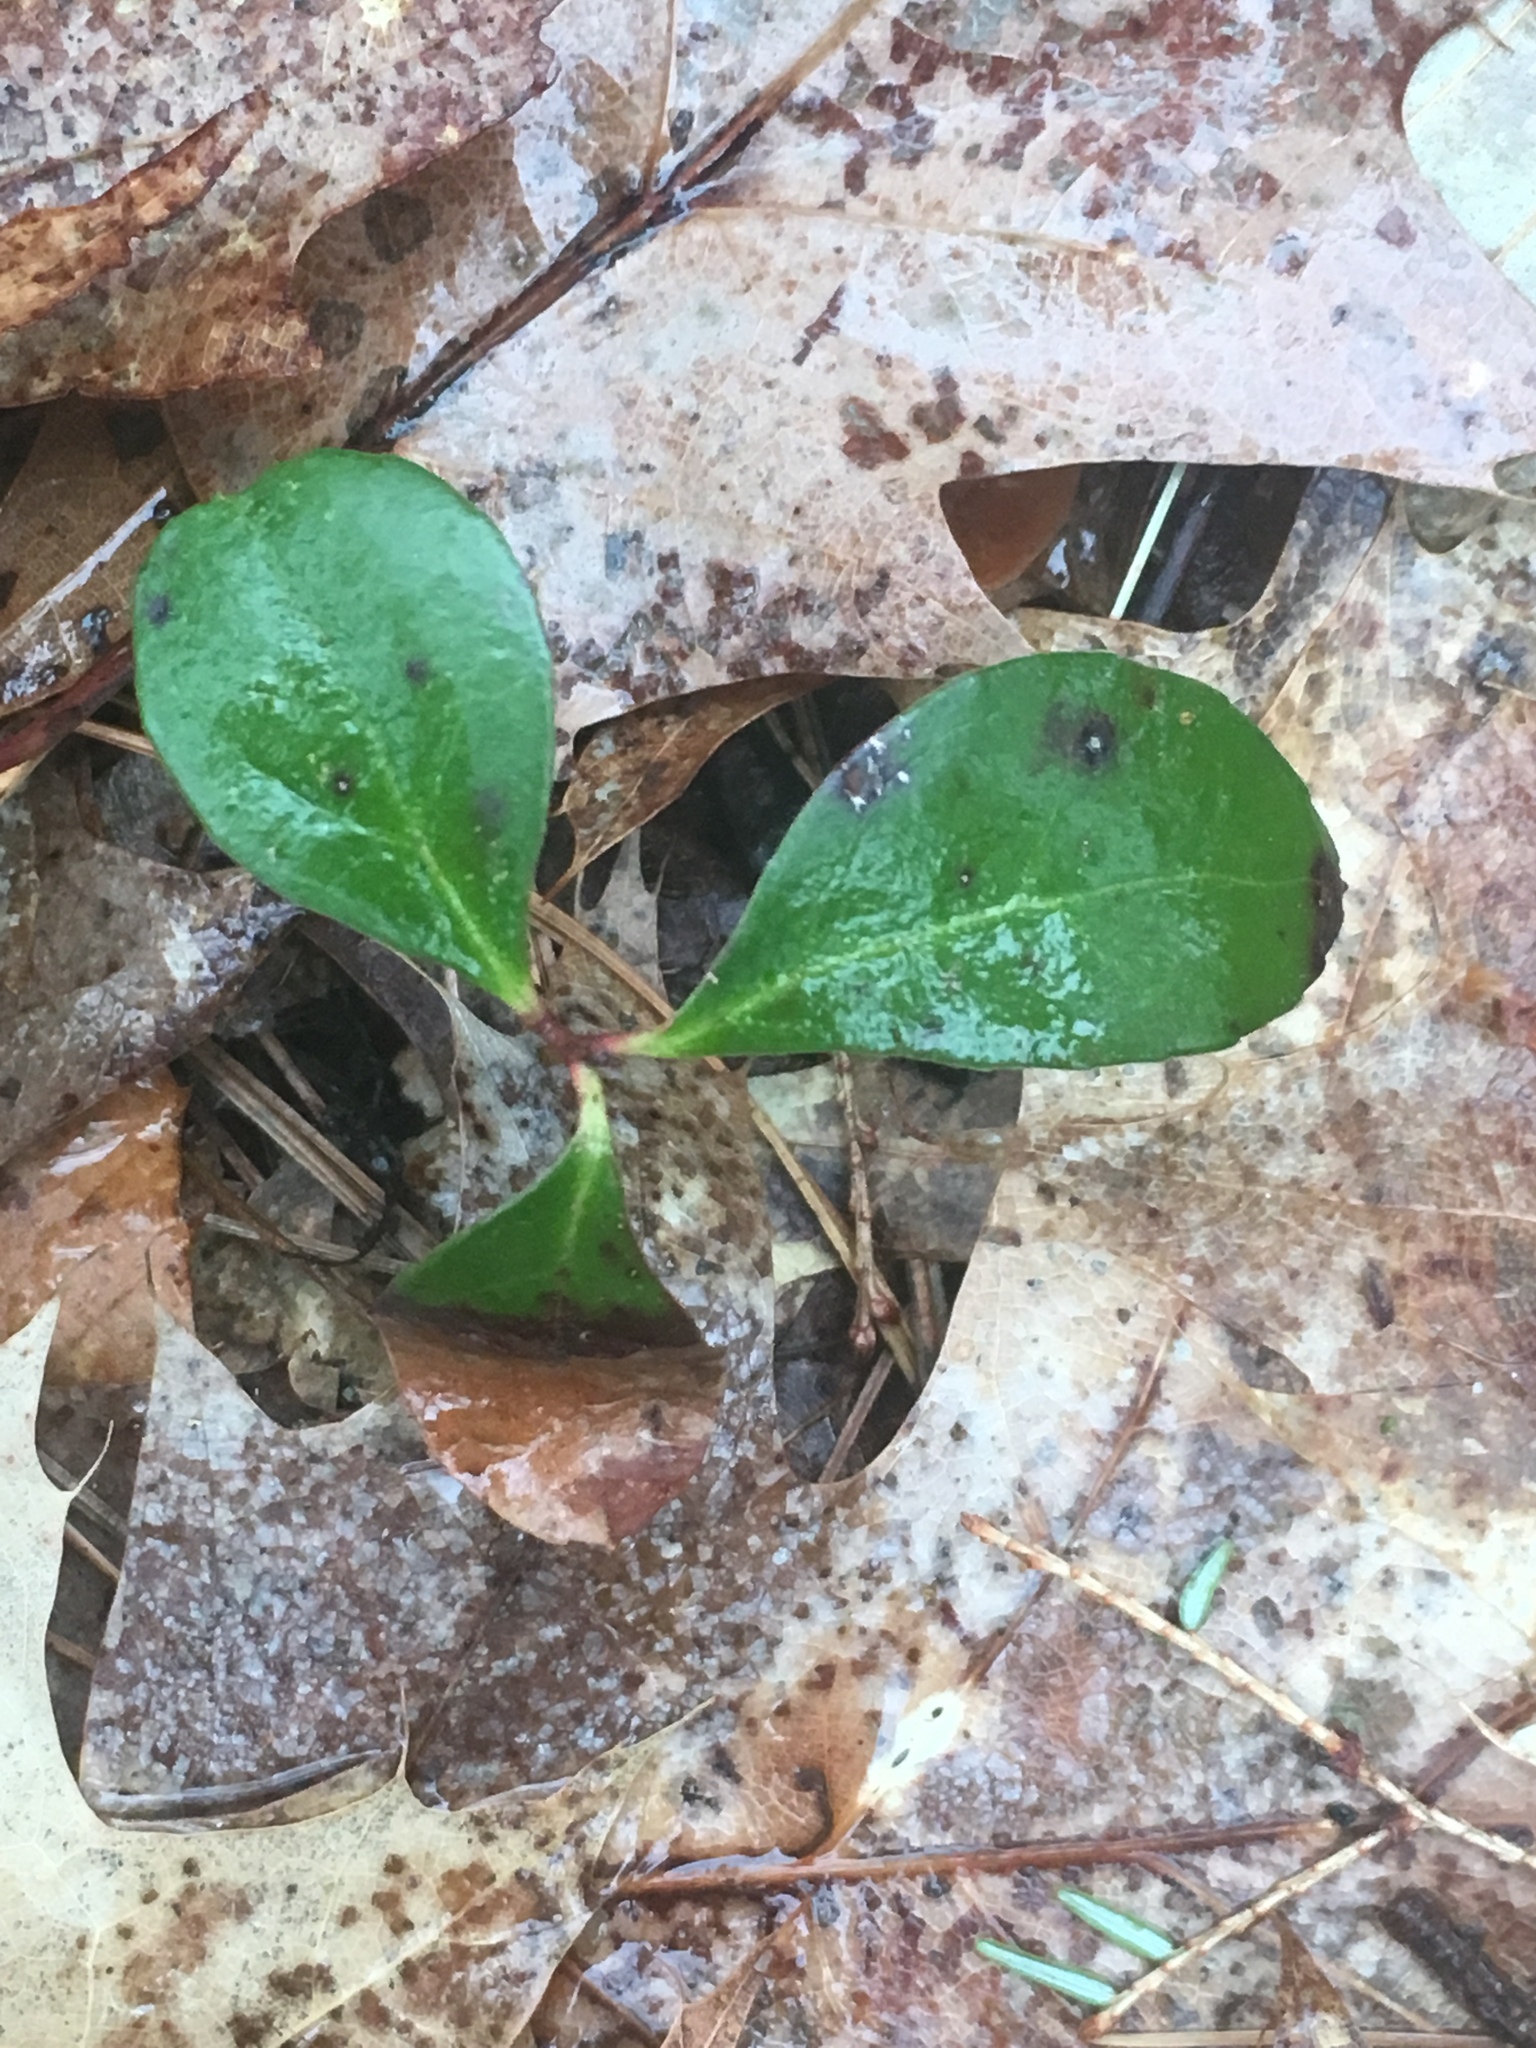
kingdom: Plantae
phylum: Tracheophyta
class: Magnoliopsida
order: Ericales
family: Ericaceae
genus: Gaultheria
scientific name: Gaultheria procumbens
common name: Checkerberry
